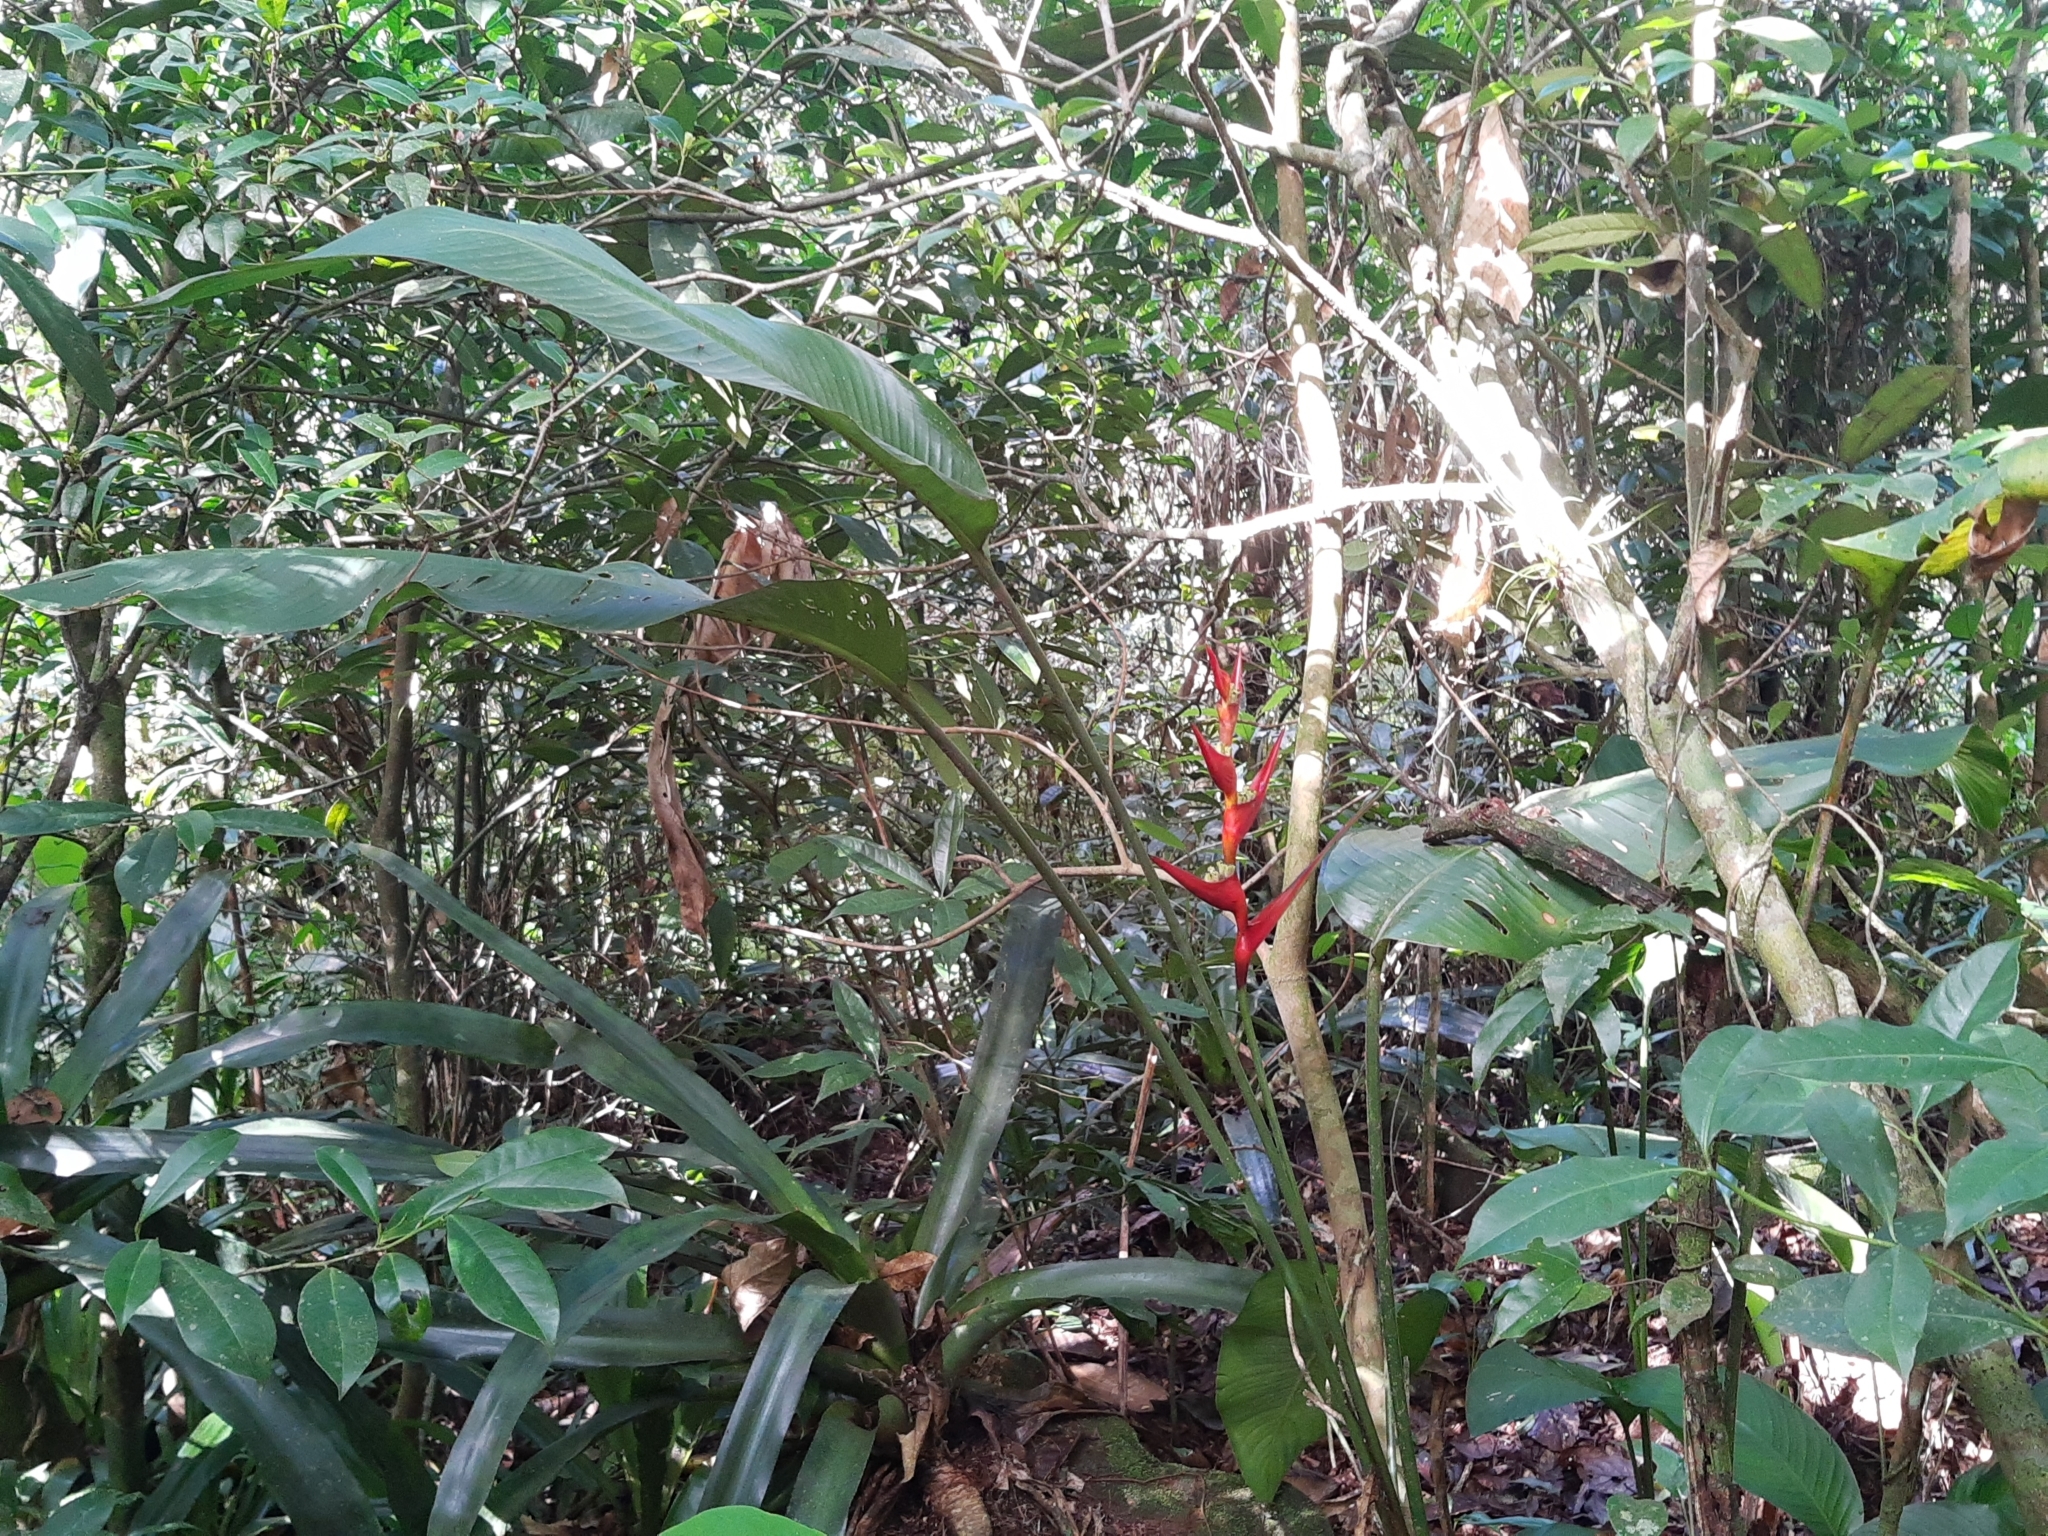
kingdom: Plantae
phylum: Tracheophyta
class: Liliopsida
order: Zingiberales
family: Heliconiaceae
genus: Heliconia
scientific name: Heliconia farinosa
